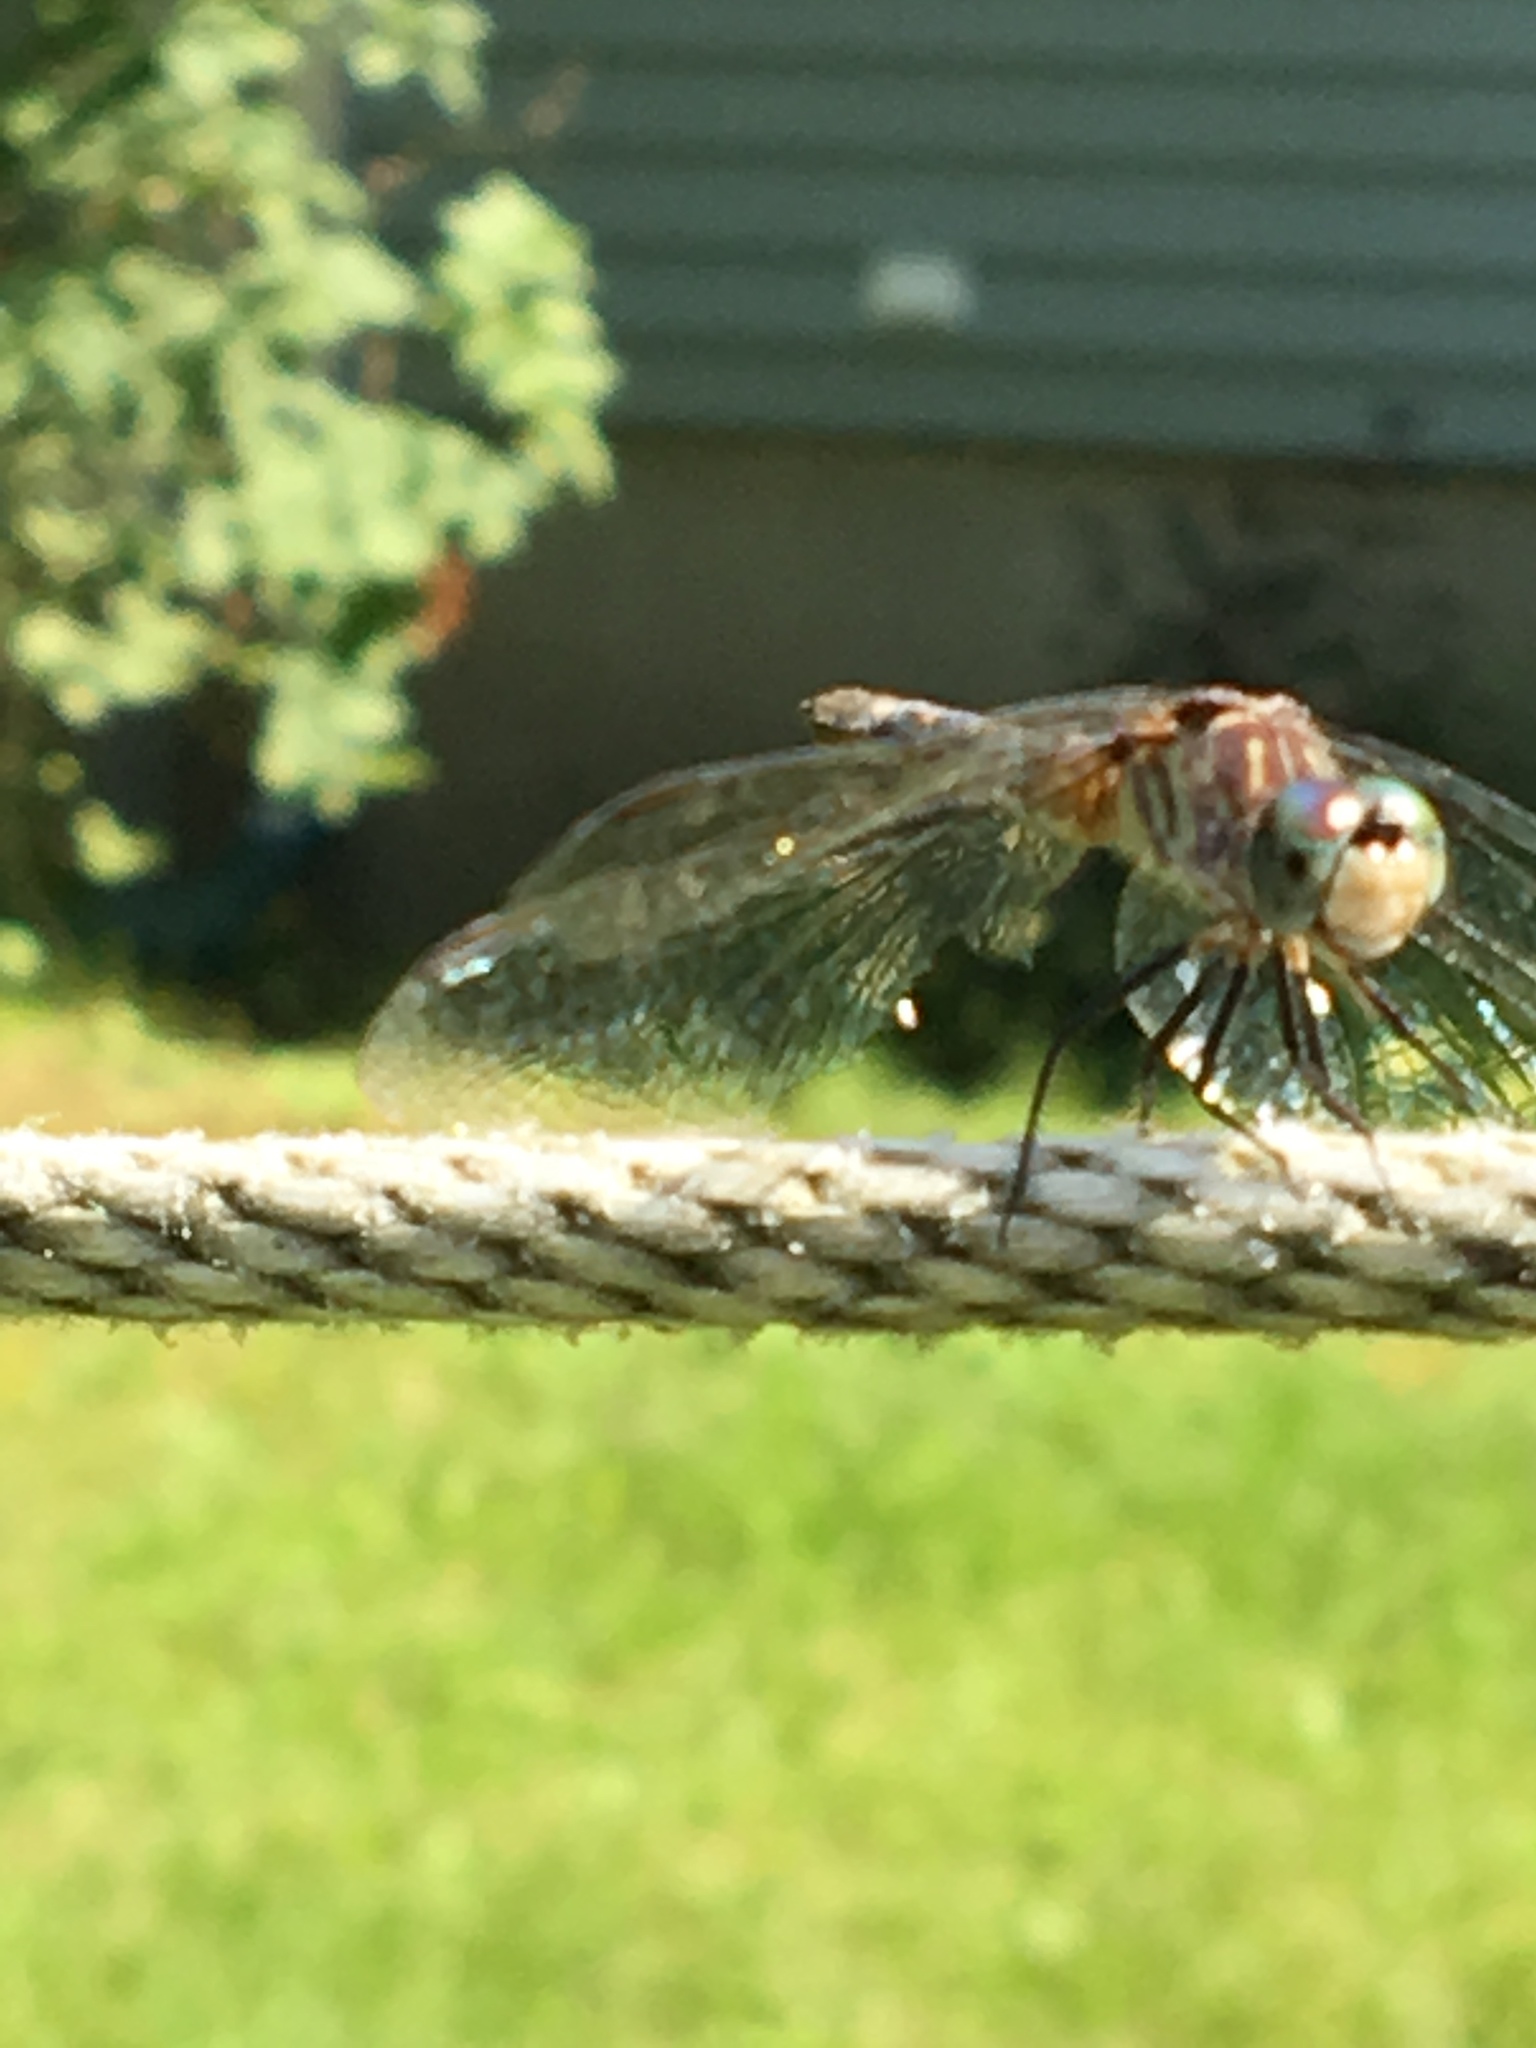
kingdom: Animalia
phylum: Arthropoda
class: Insecta
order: Odonata
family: Libellulidae
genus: Pachydiplax
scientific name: Pachydiplax longipennis
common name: Blue dasher
